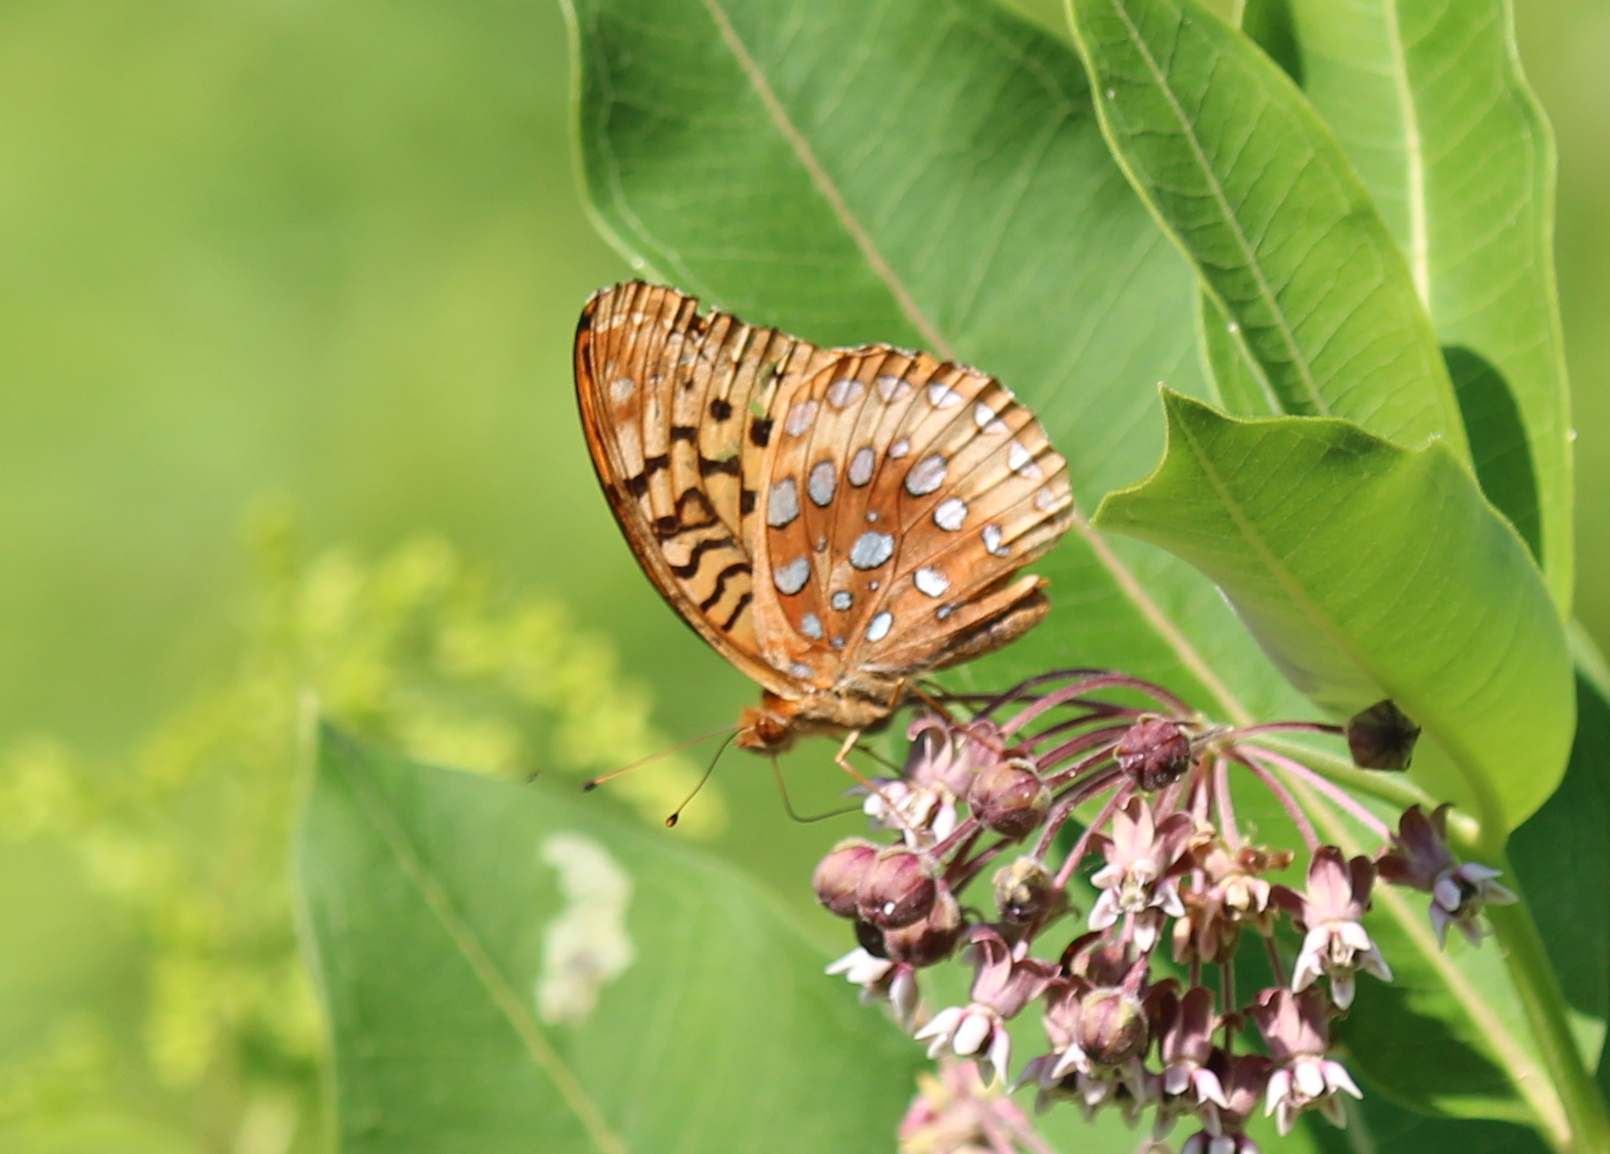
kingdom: Animalia
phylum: Arthropoda
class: Insecta
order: Lepidoptera
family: Nymphalidae
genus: Speyeria
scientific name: Speyeria cybele
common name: Great spangled fritillary
